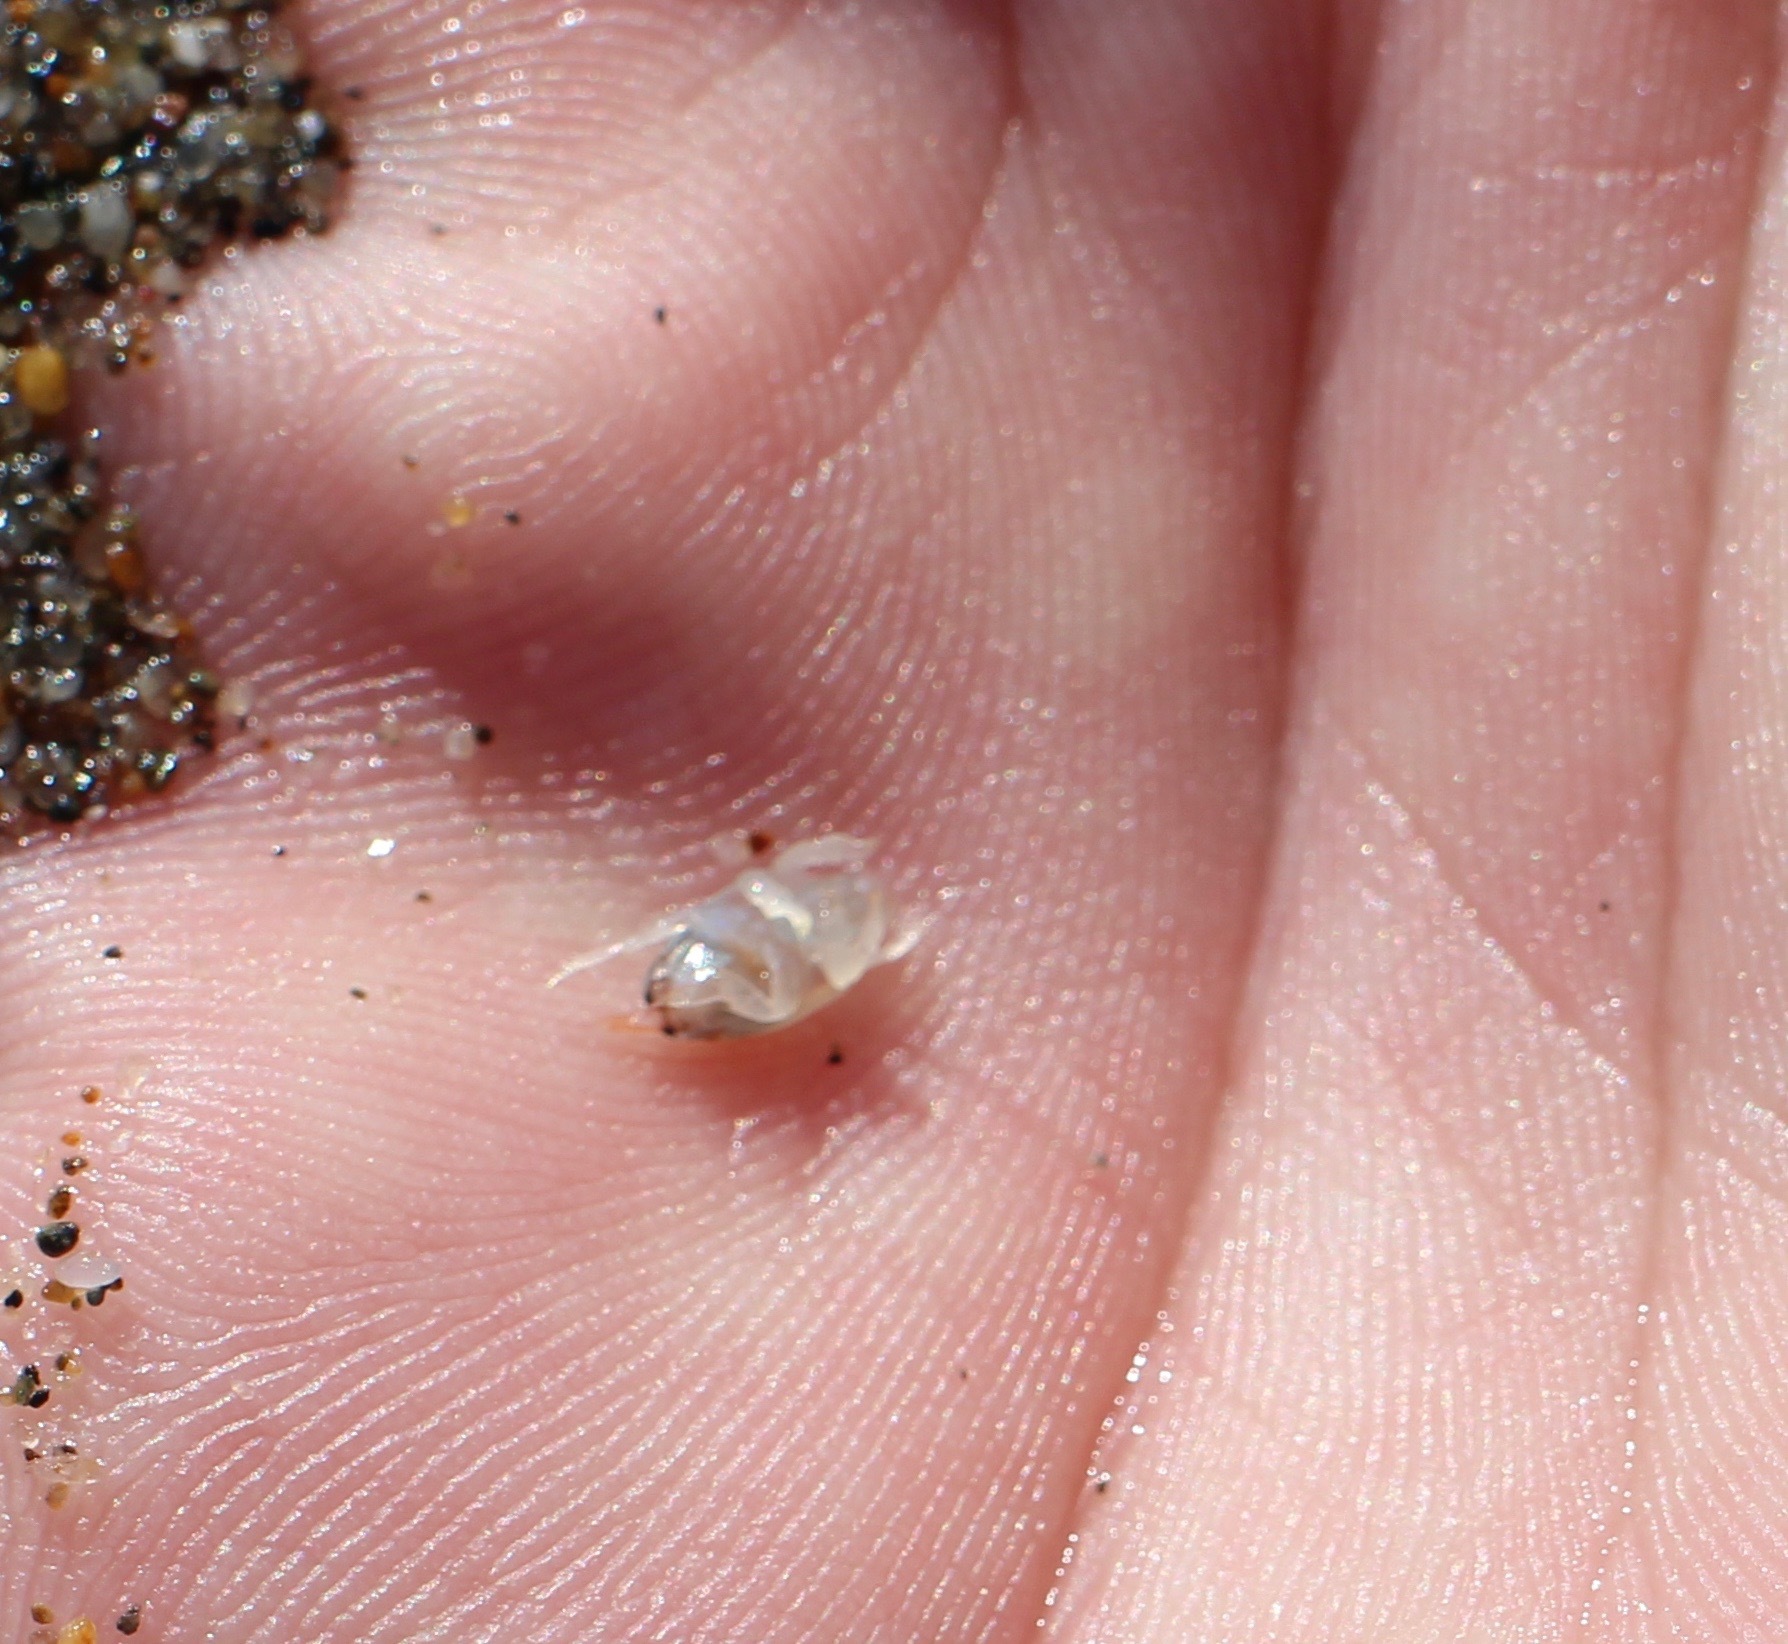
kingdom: Animalia
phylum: Arthropoda
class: Malacostraca
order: Decapoda
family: Hippidae
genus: Emerita
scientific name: Emerita analoga
